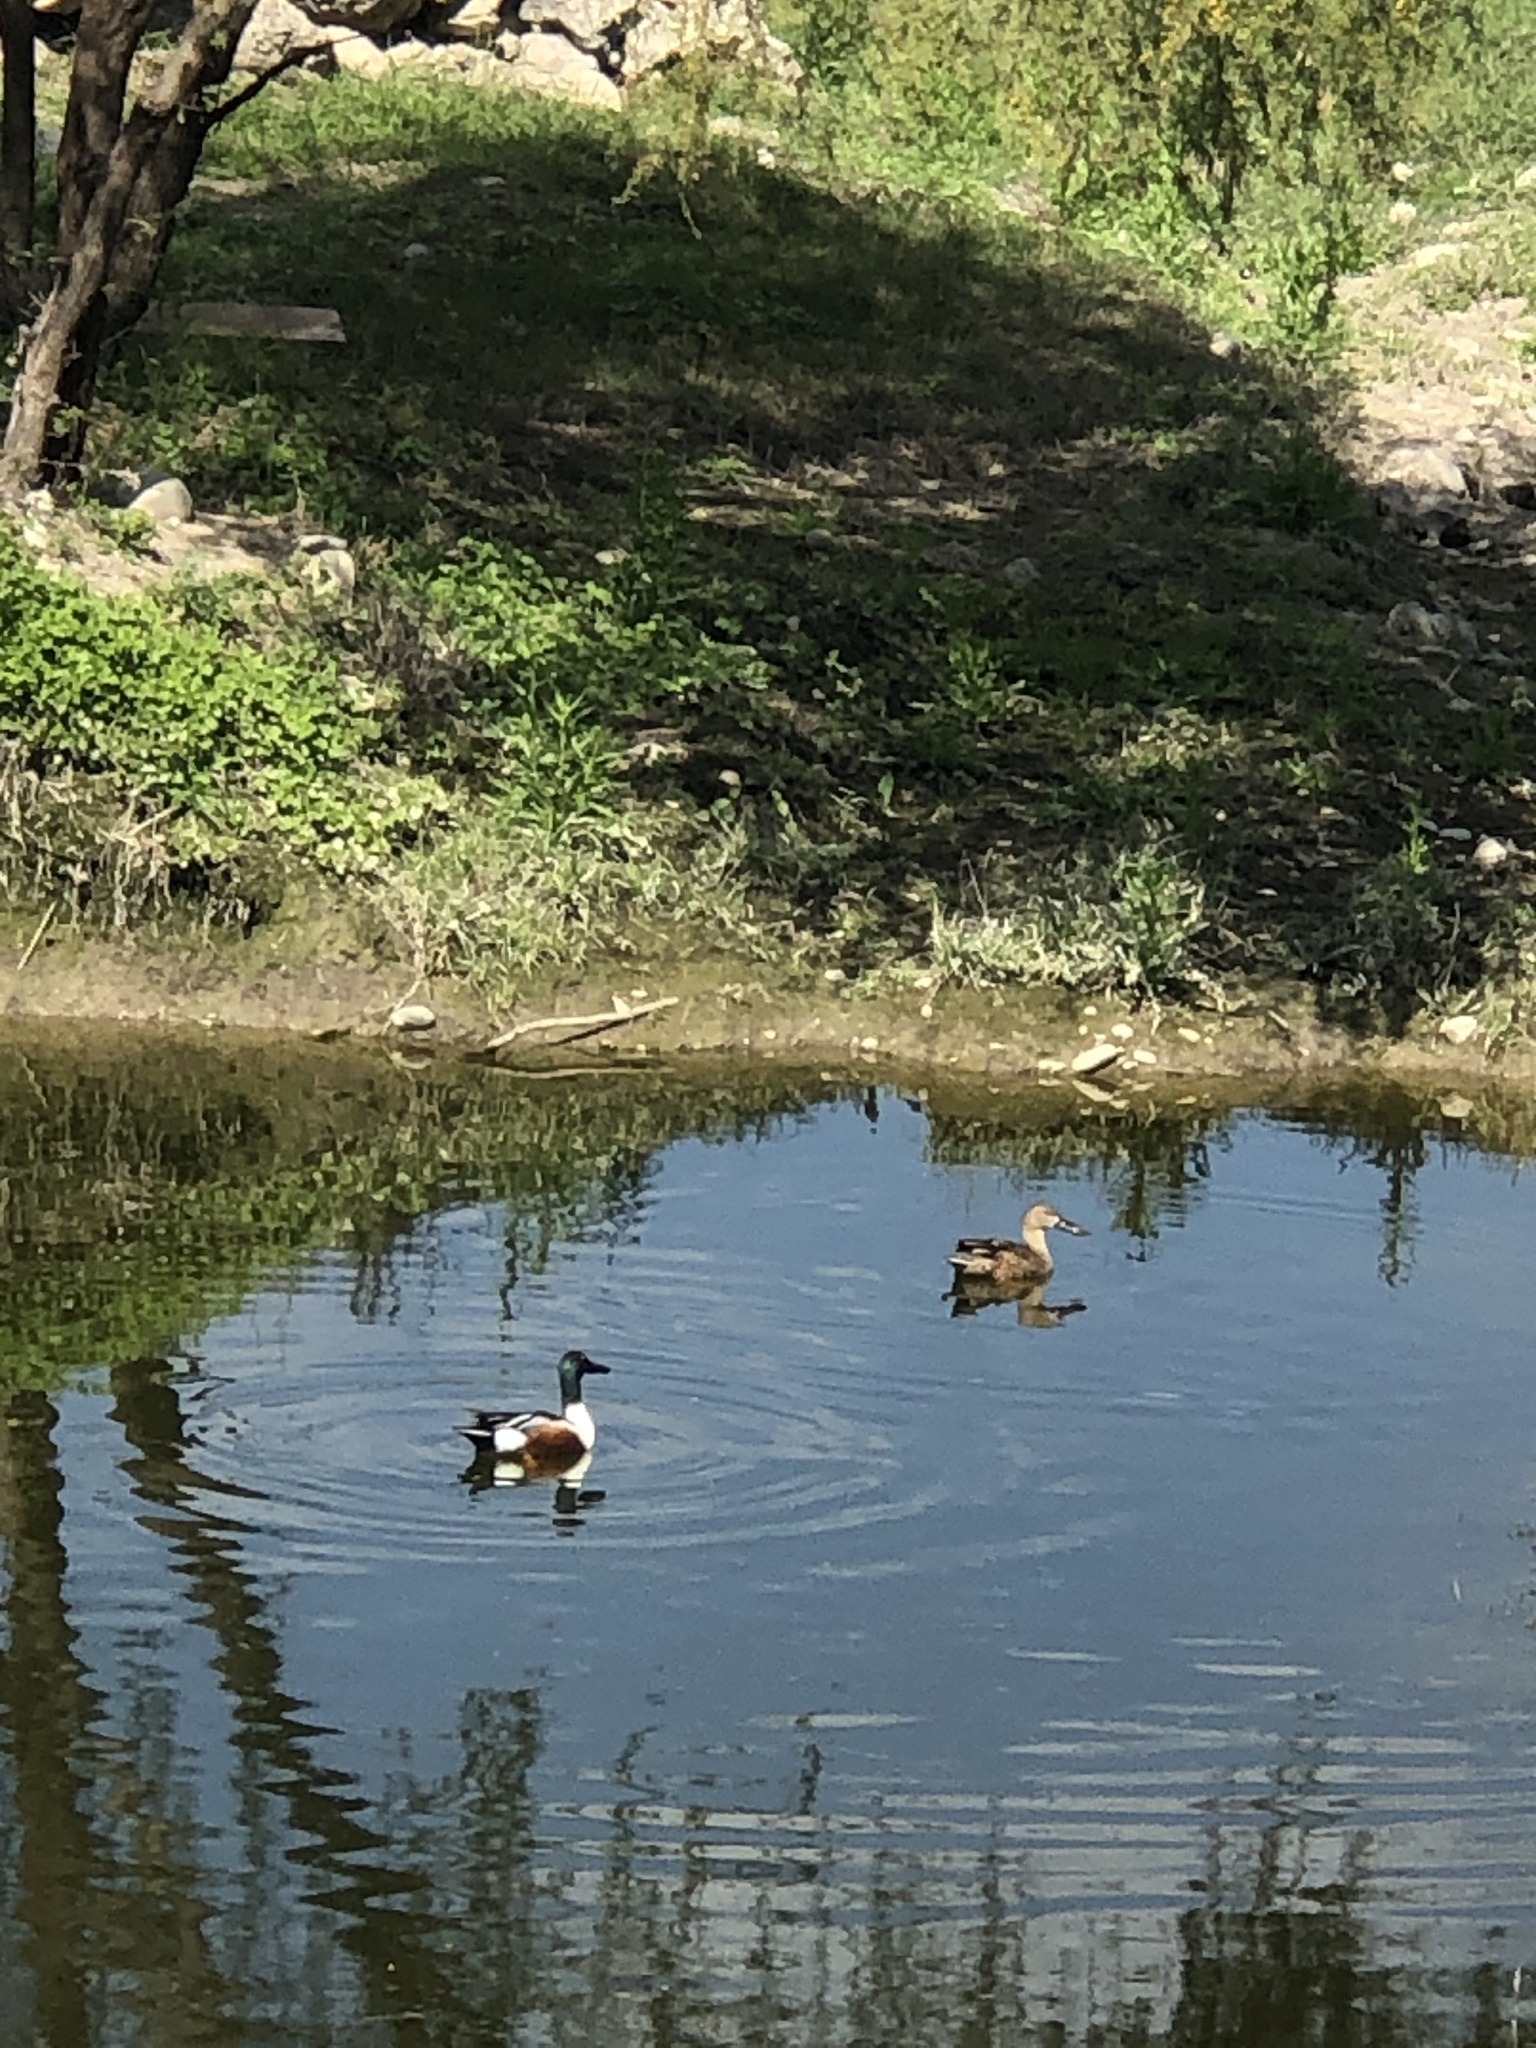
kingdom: Animalia
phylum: Chordata
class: Aves
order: Anseriformes
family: Anatidae
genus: Spatula
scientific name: Spatula clypeata
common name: Northern shoveler
